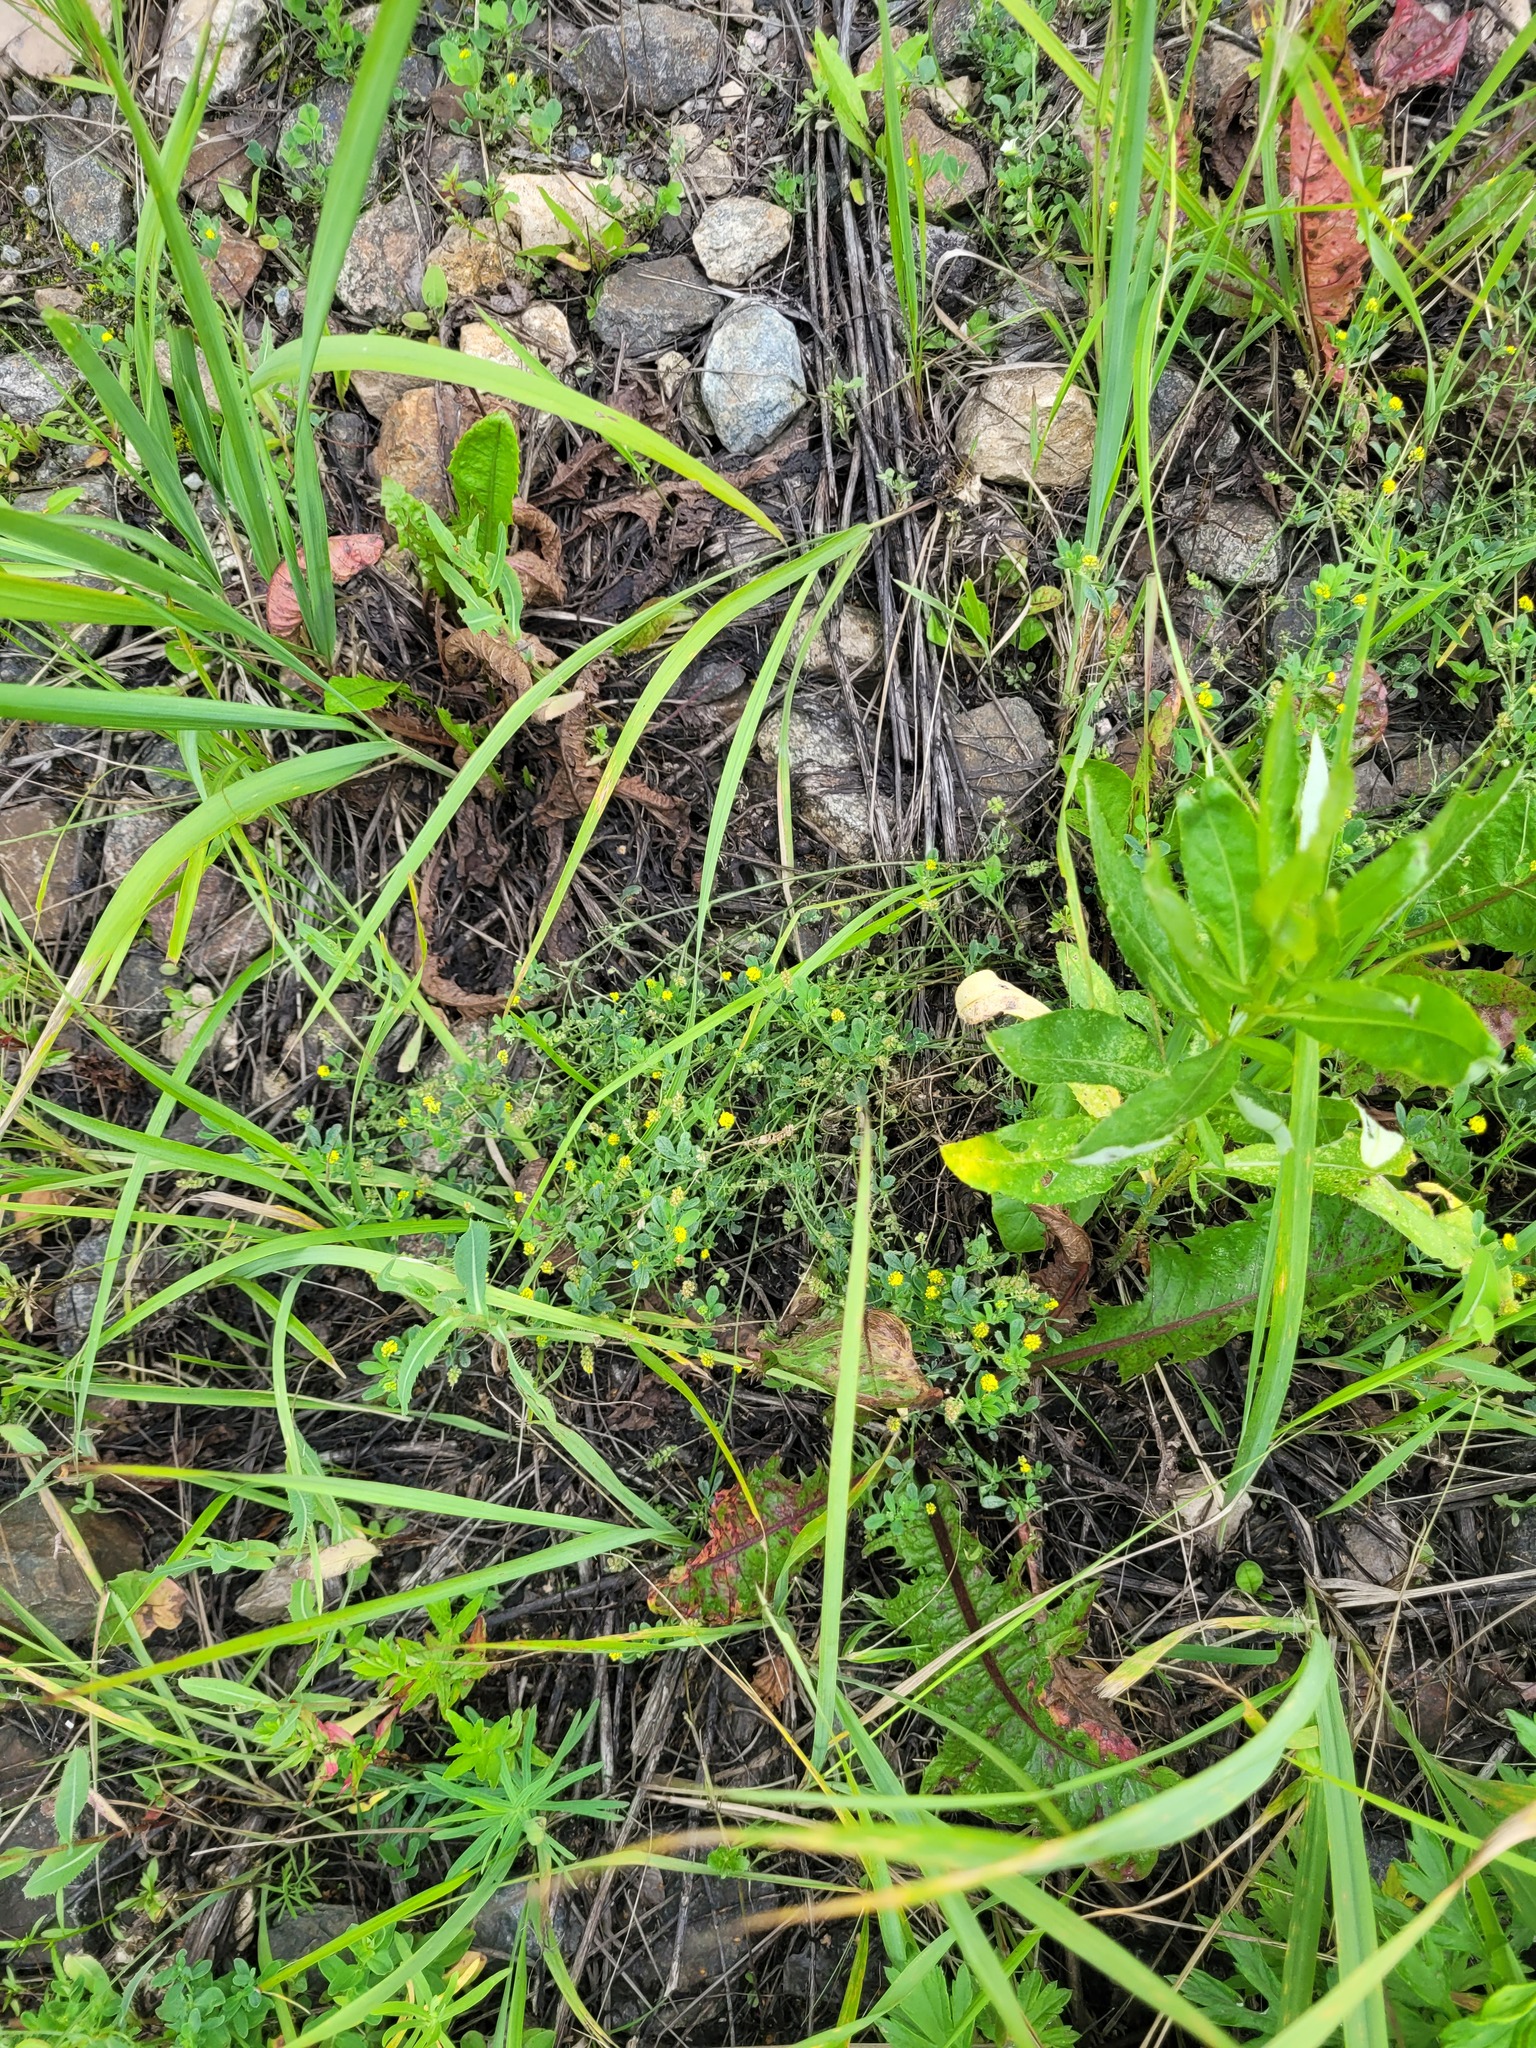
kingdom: Plantae
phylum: Tracheophyta
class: Magnoliopsida
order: Fabales
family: Fabaceae
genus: Medicago
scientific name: Medicago lupulina
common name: Black medick
